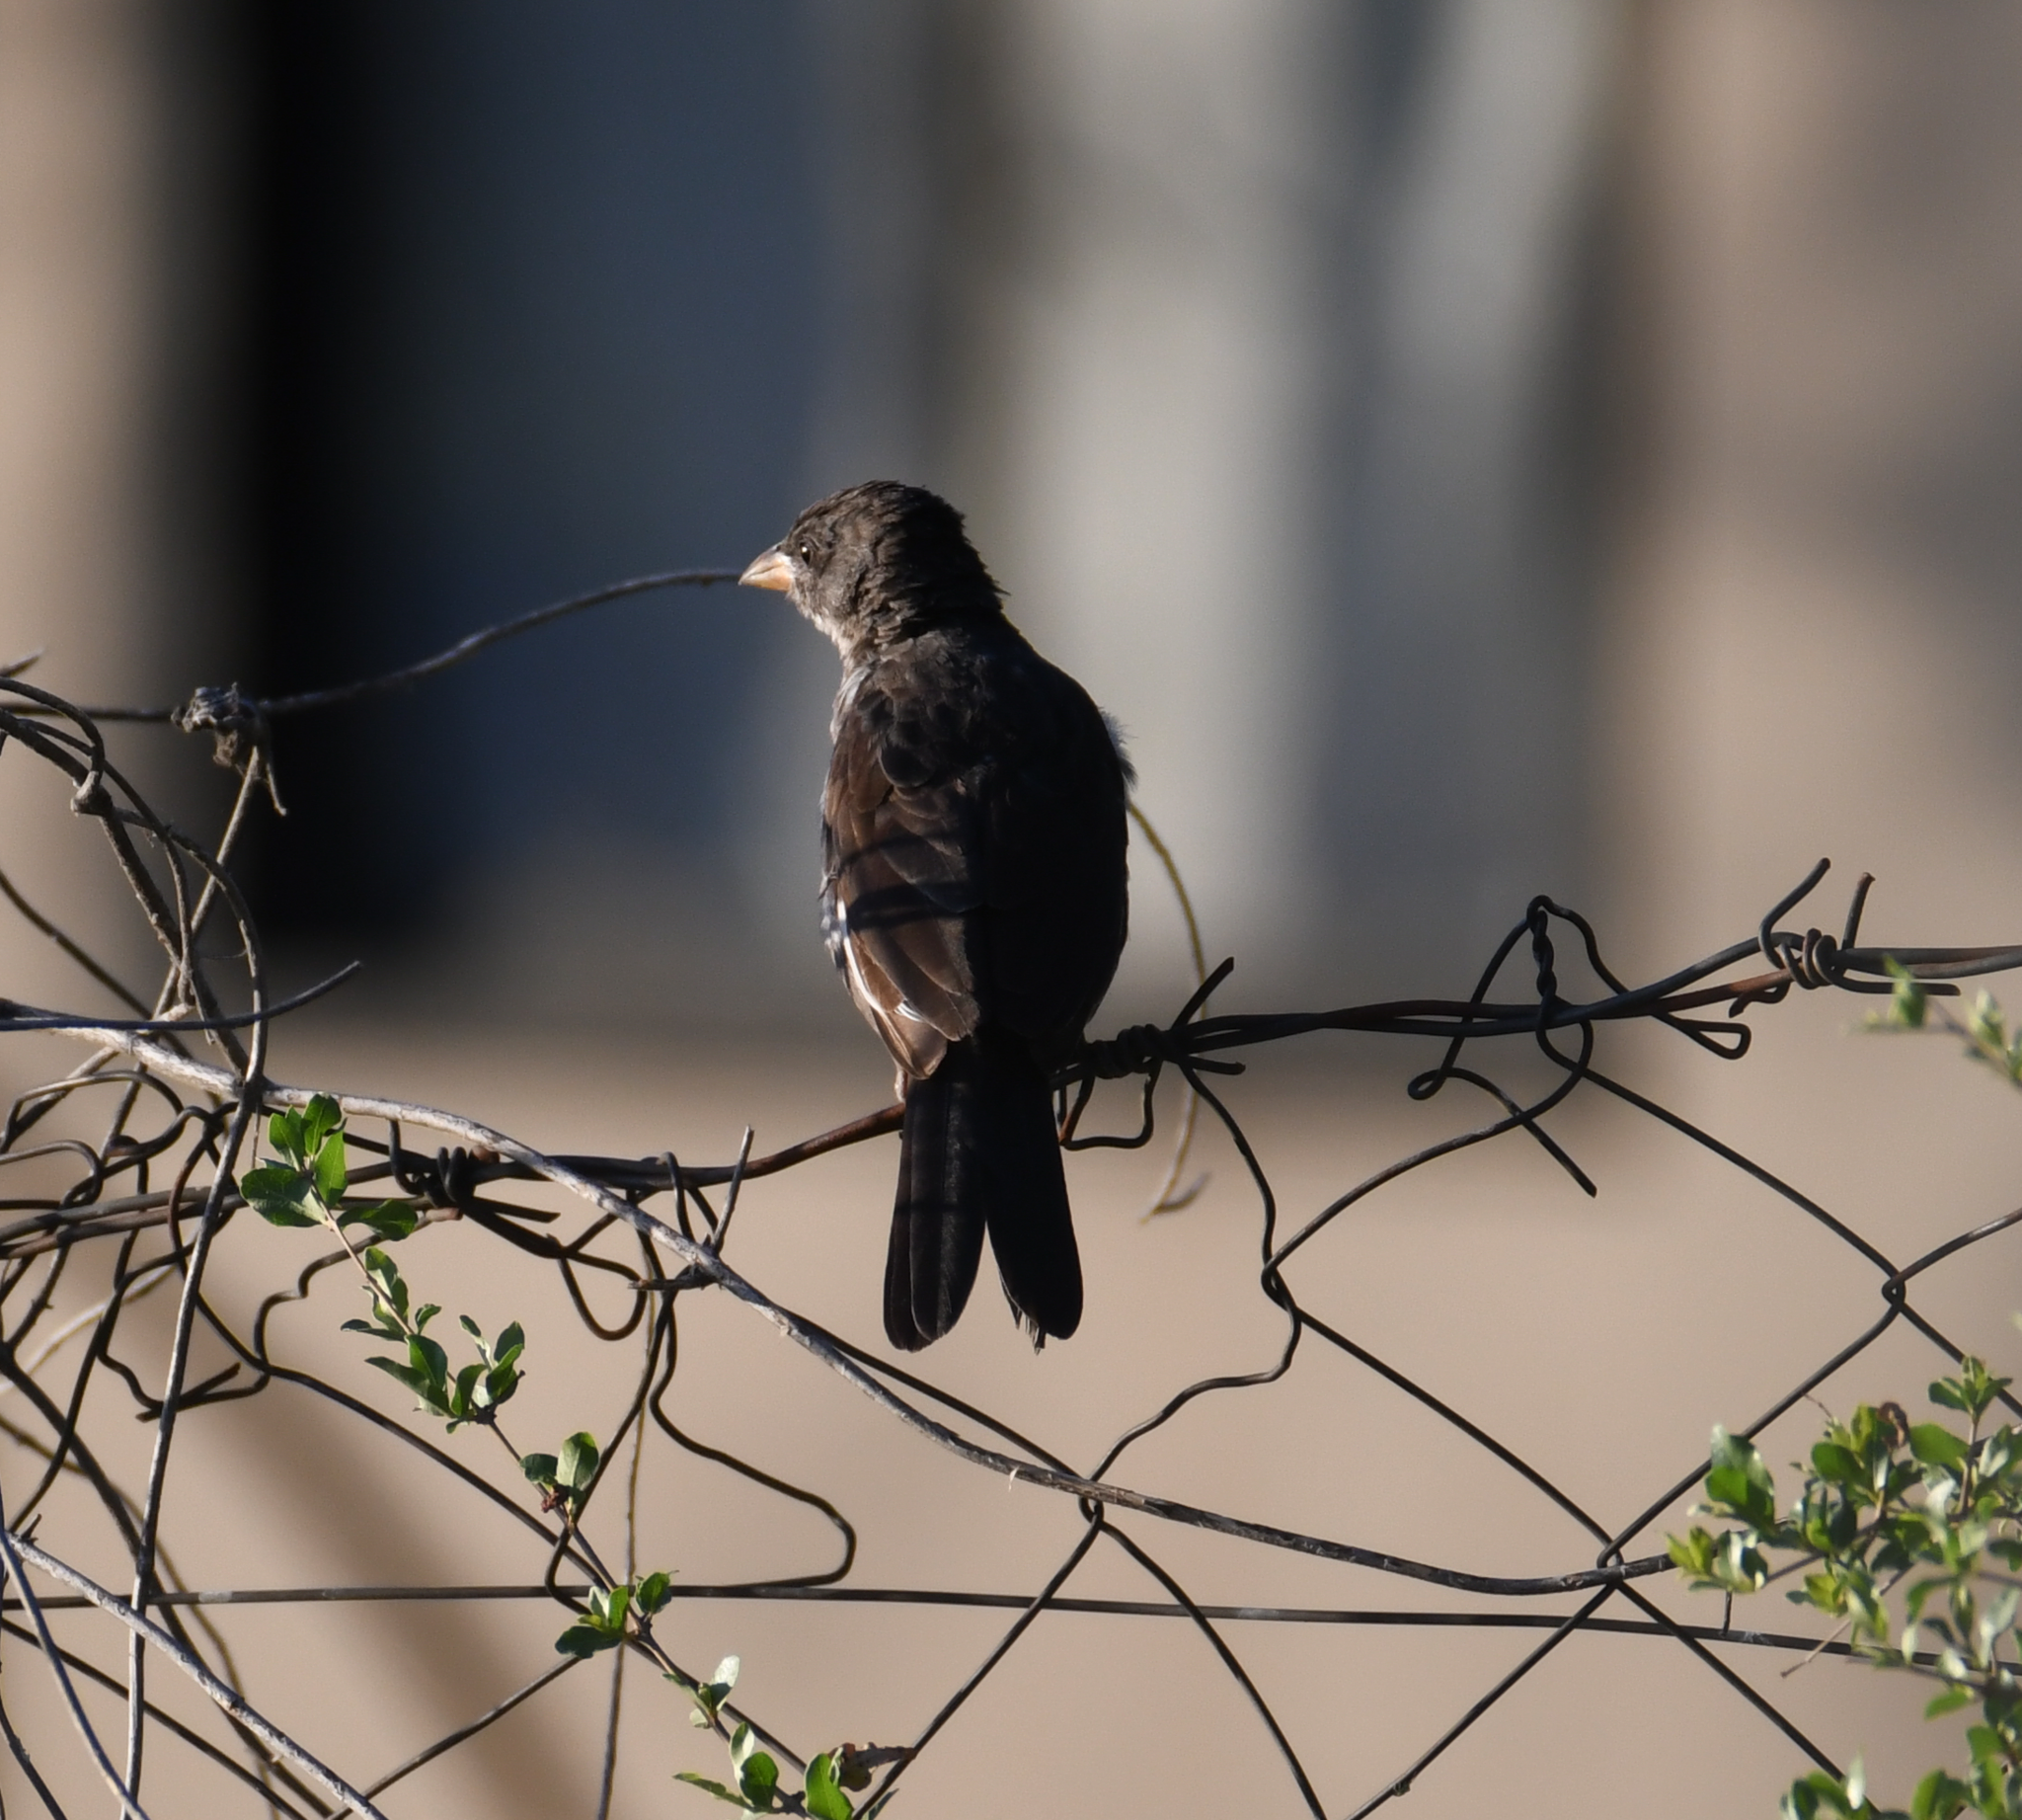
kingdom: Animalia
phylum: Chordata
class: Aves
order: Passeriformes
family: Ploceidae
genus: Bubalornis
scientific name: Bubalornis niger
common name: Red-billed buffalo weaver
